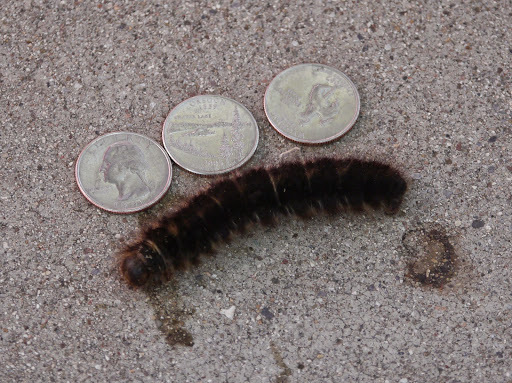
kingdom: Animalia
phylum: Arthropoda
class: Insecta
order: Lepidoptera
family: Lasiocampidae
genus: Dicogaster
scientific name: Dicogaster coronada
